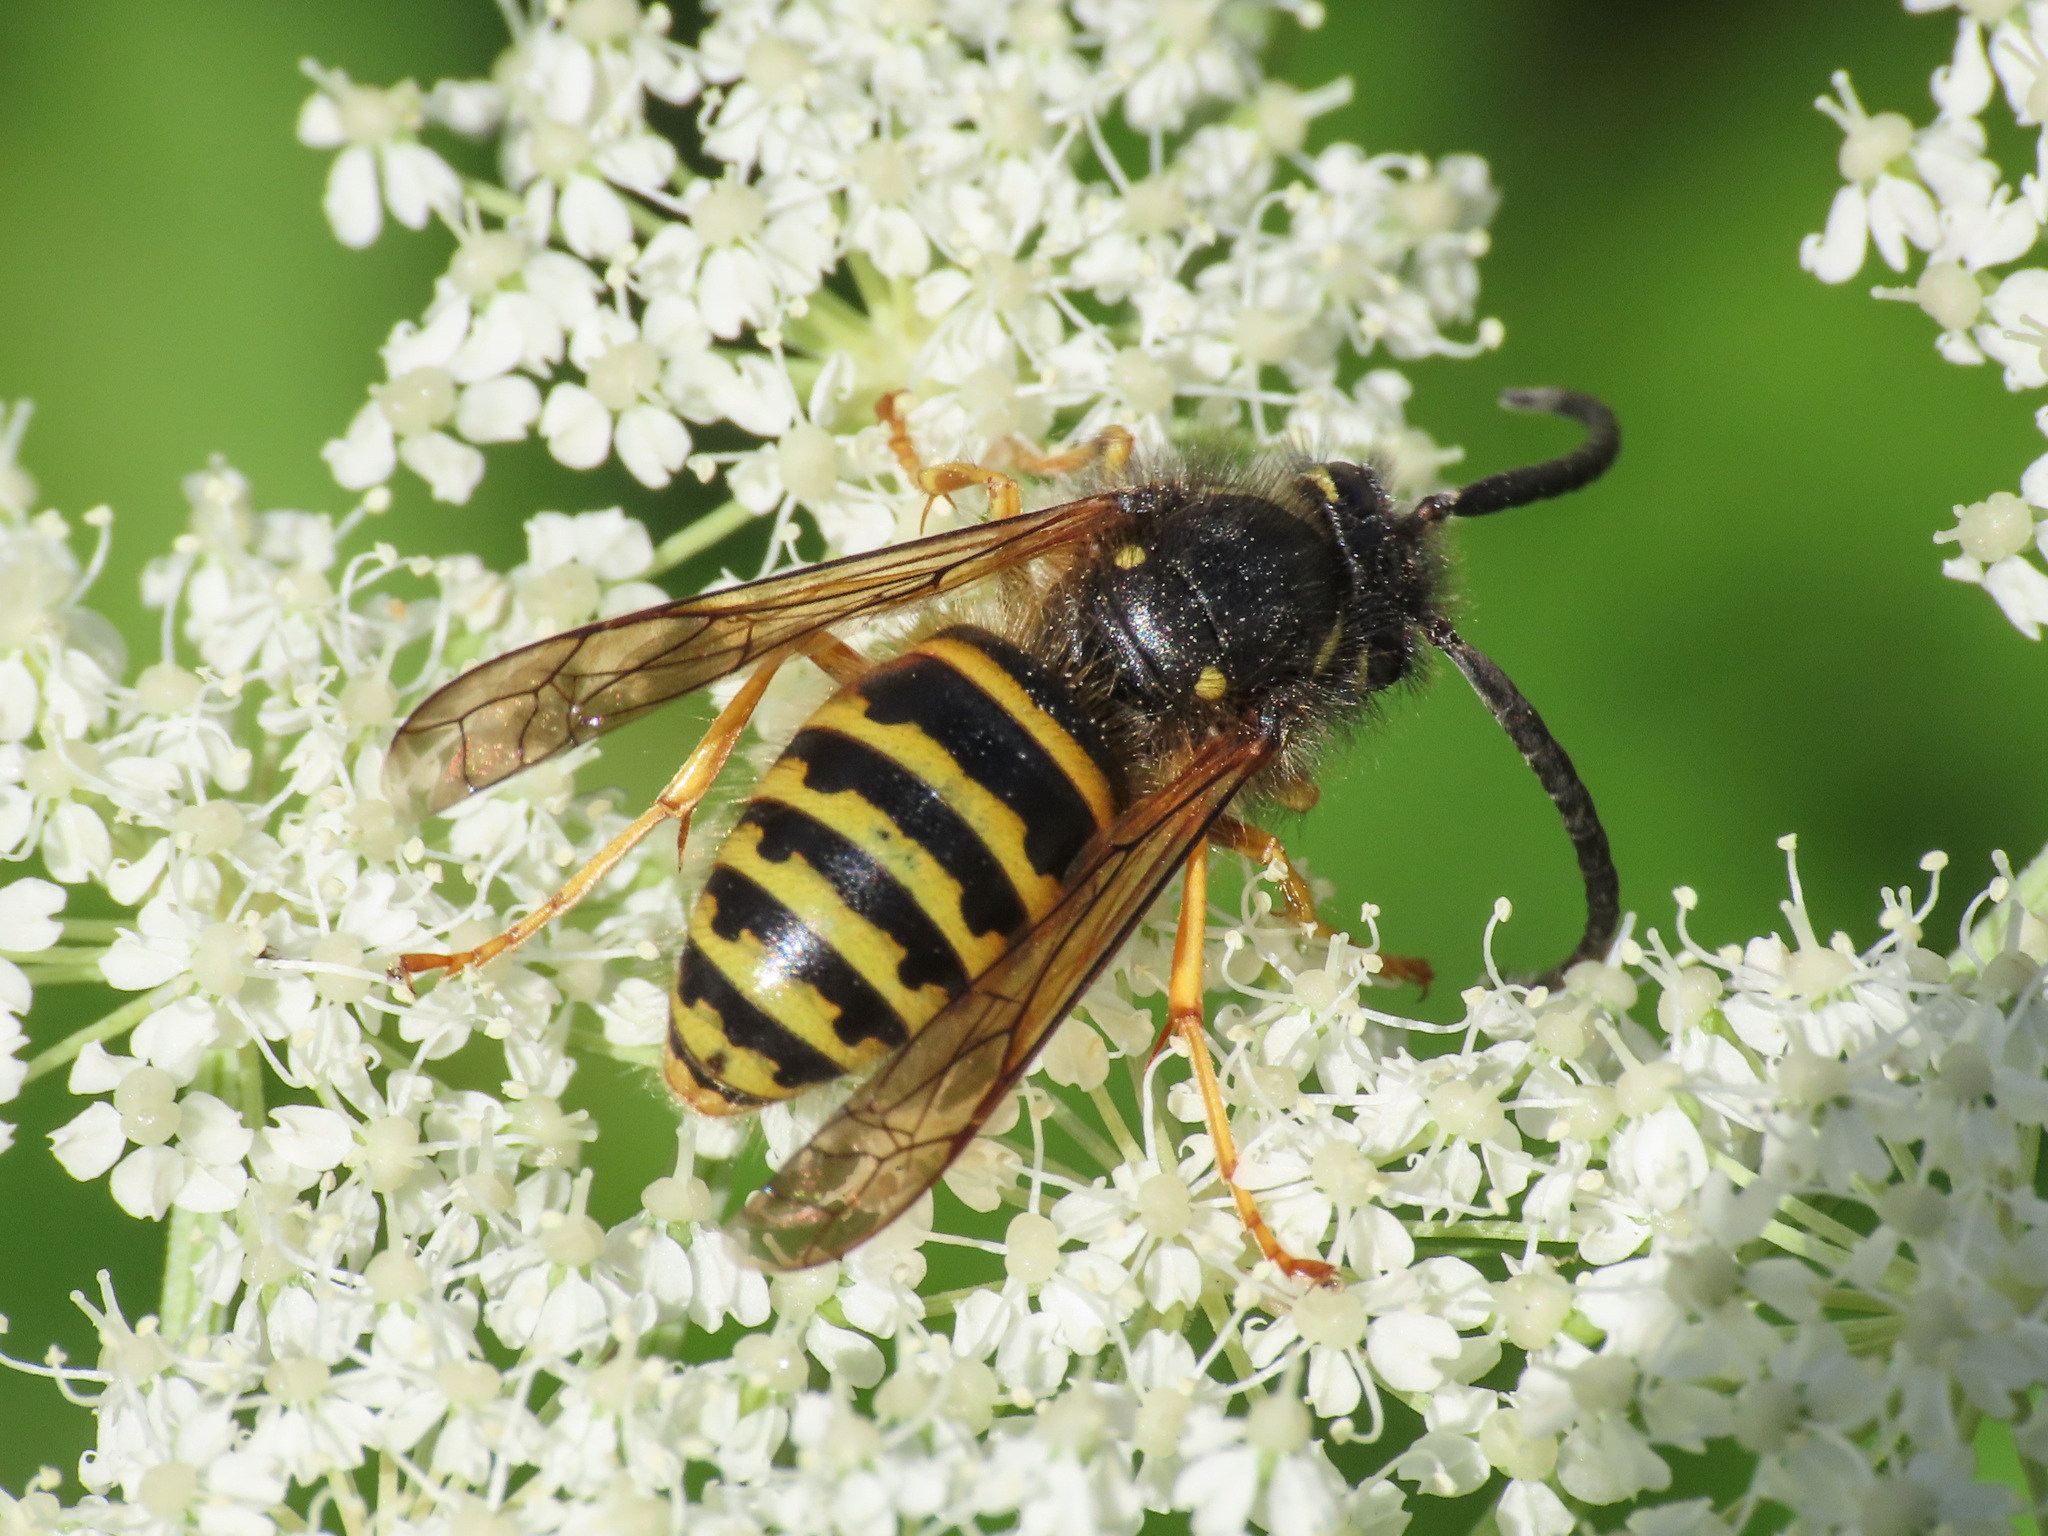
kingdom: Animalia
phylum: Arthropoda
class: Insecta
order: Hymenoptera
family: Vespidae
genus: Dolichovespula
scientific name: Dolichovespula norwegica
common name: Norwegian wasp
